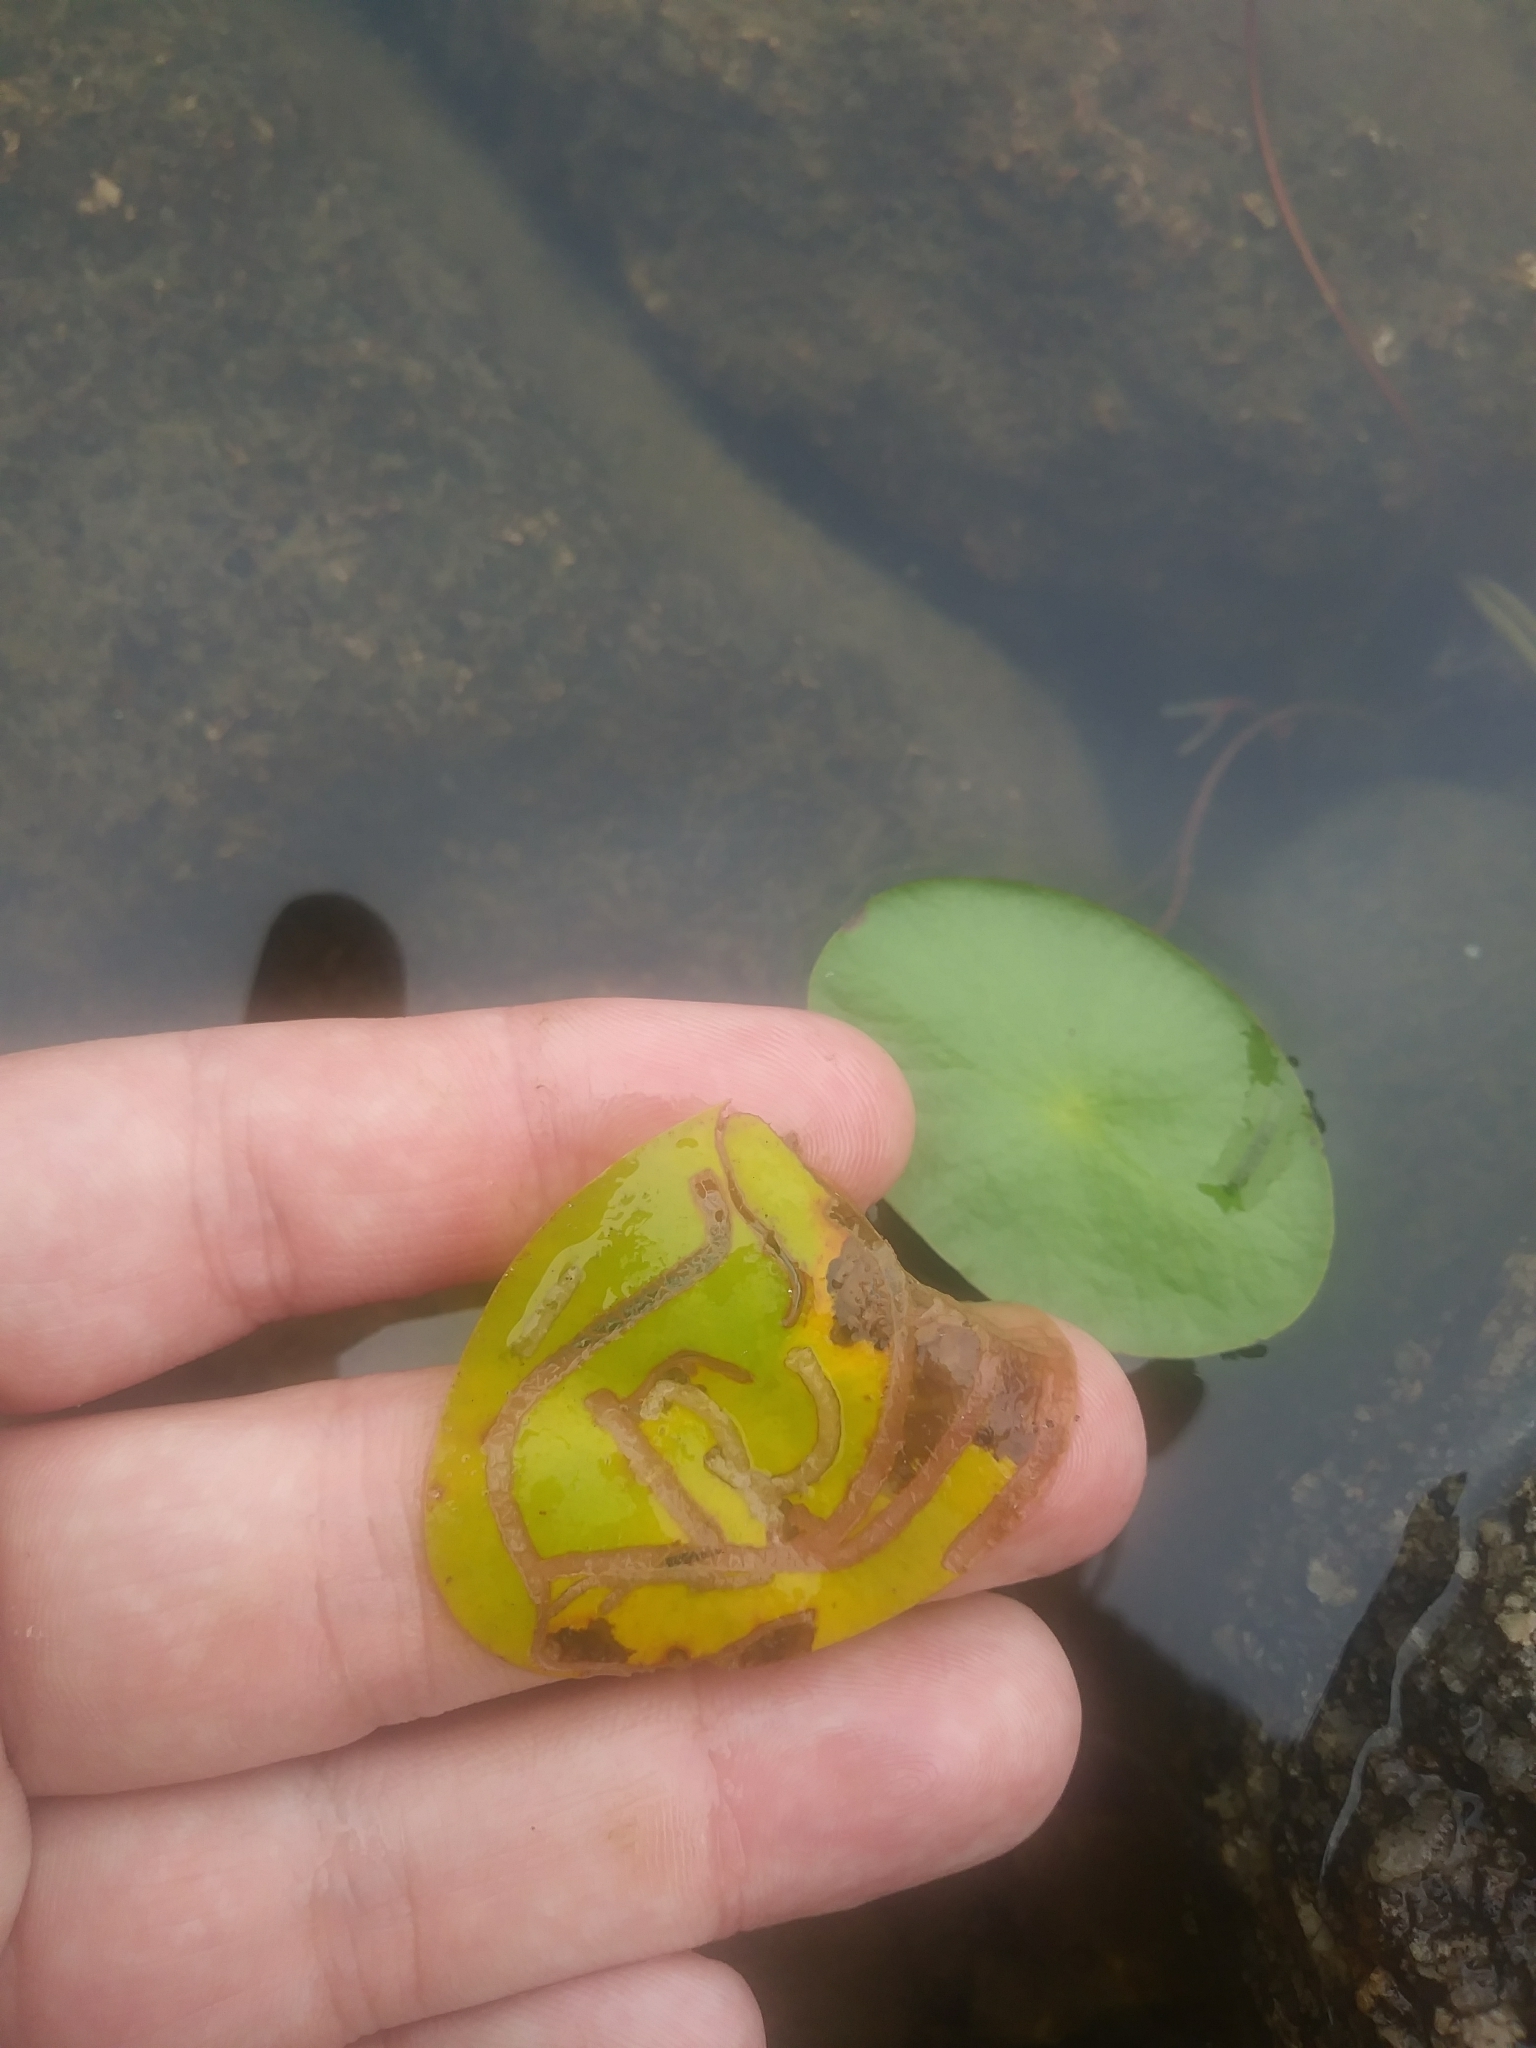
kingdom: Animalia
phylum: Arthropoda
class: Insecta
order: Diptera
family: Chironomidae
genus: Polypedilum
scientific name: Polypedilum braseniae
